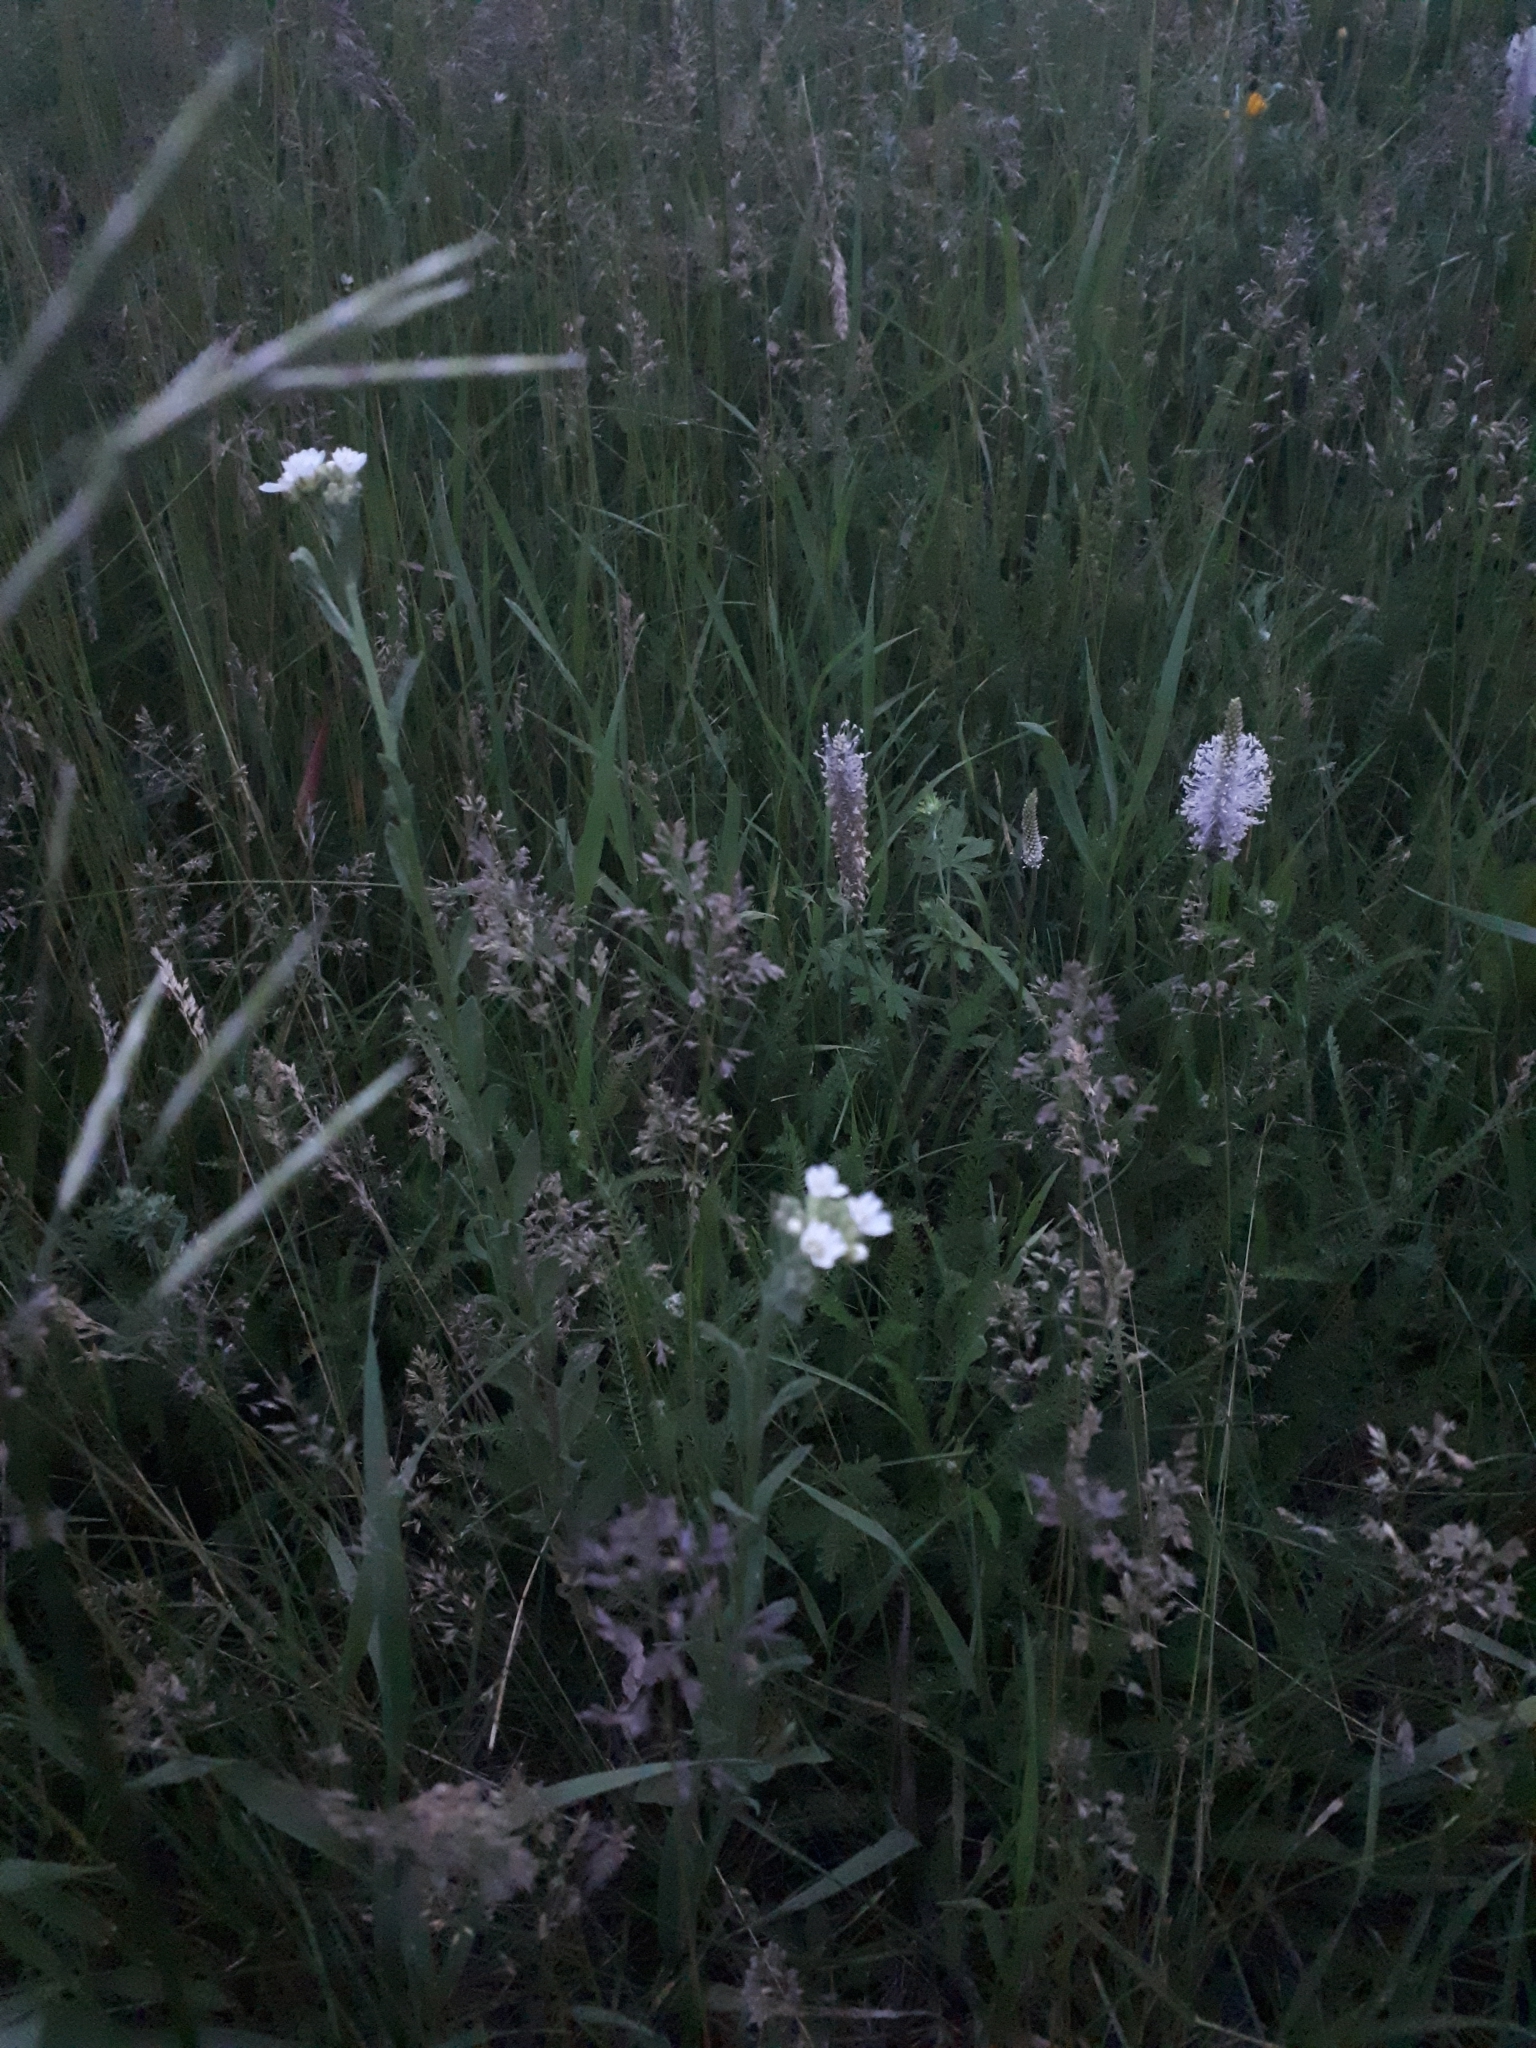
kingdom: Plantae
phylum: Tracheophyta
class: Magnoliopsida
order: Brassicales
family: Brassicaceae
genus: Berteroa
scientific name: Berteroa incana
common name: Hoary alison
